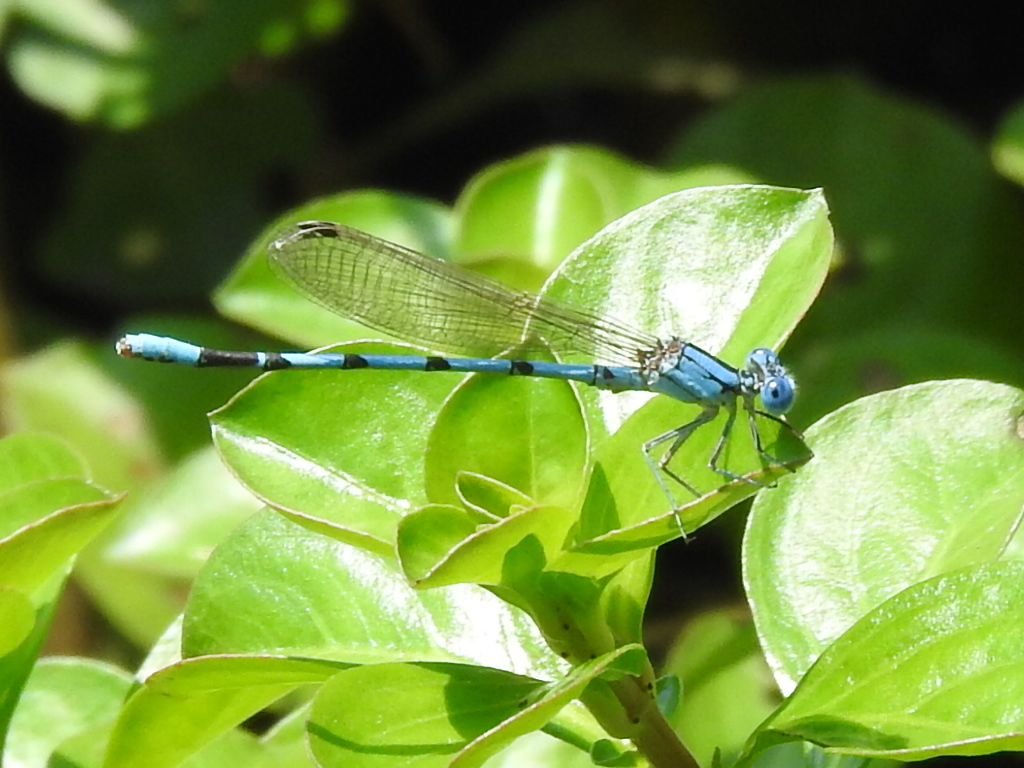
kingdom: Animalia
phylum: Arthropoda
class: Insecta
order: Odonata
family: Coenagrionidae
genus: Argia
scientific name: Argia nahuana
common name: Aztec dancer
